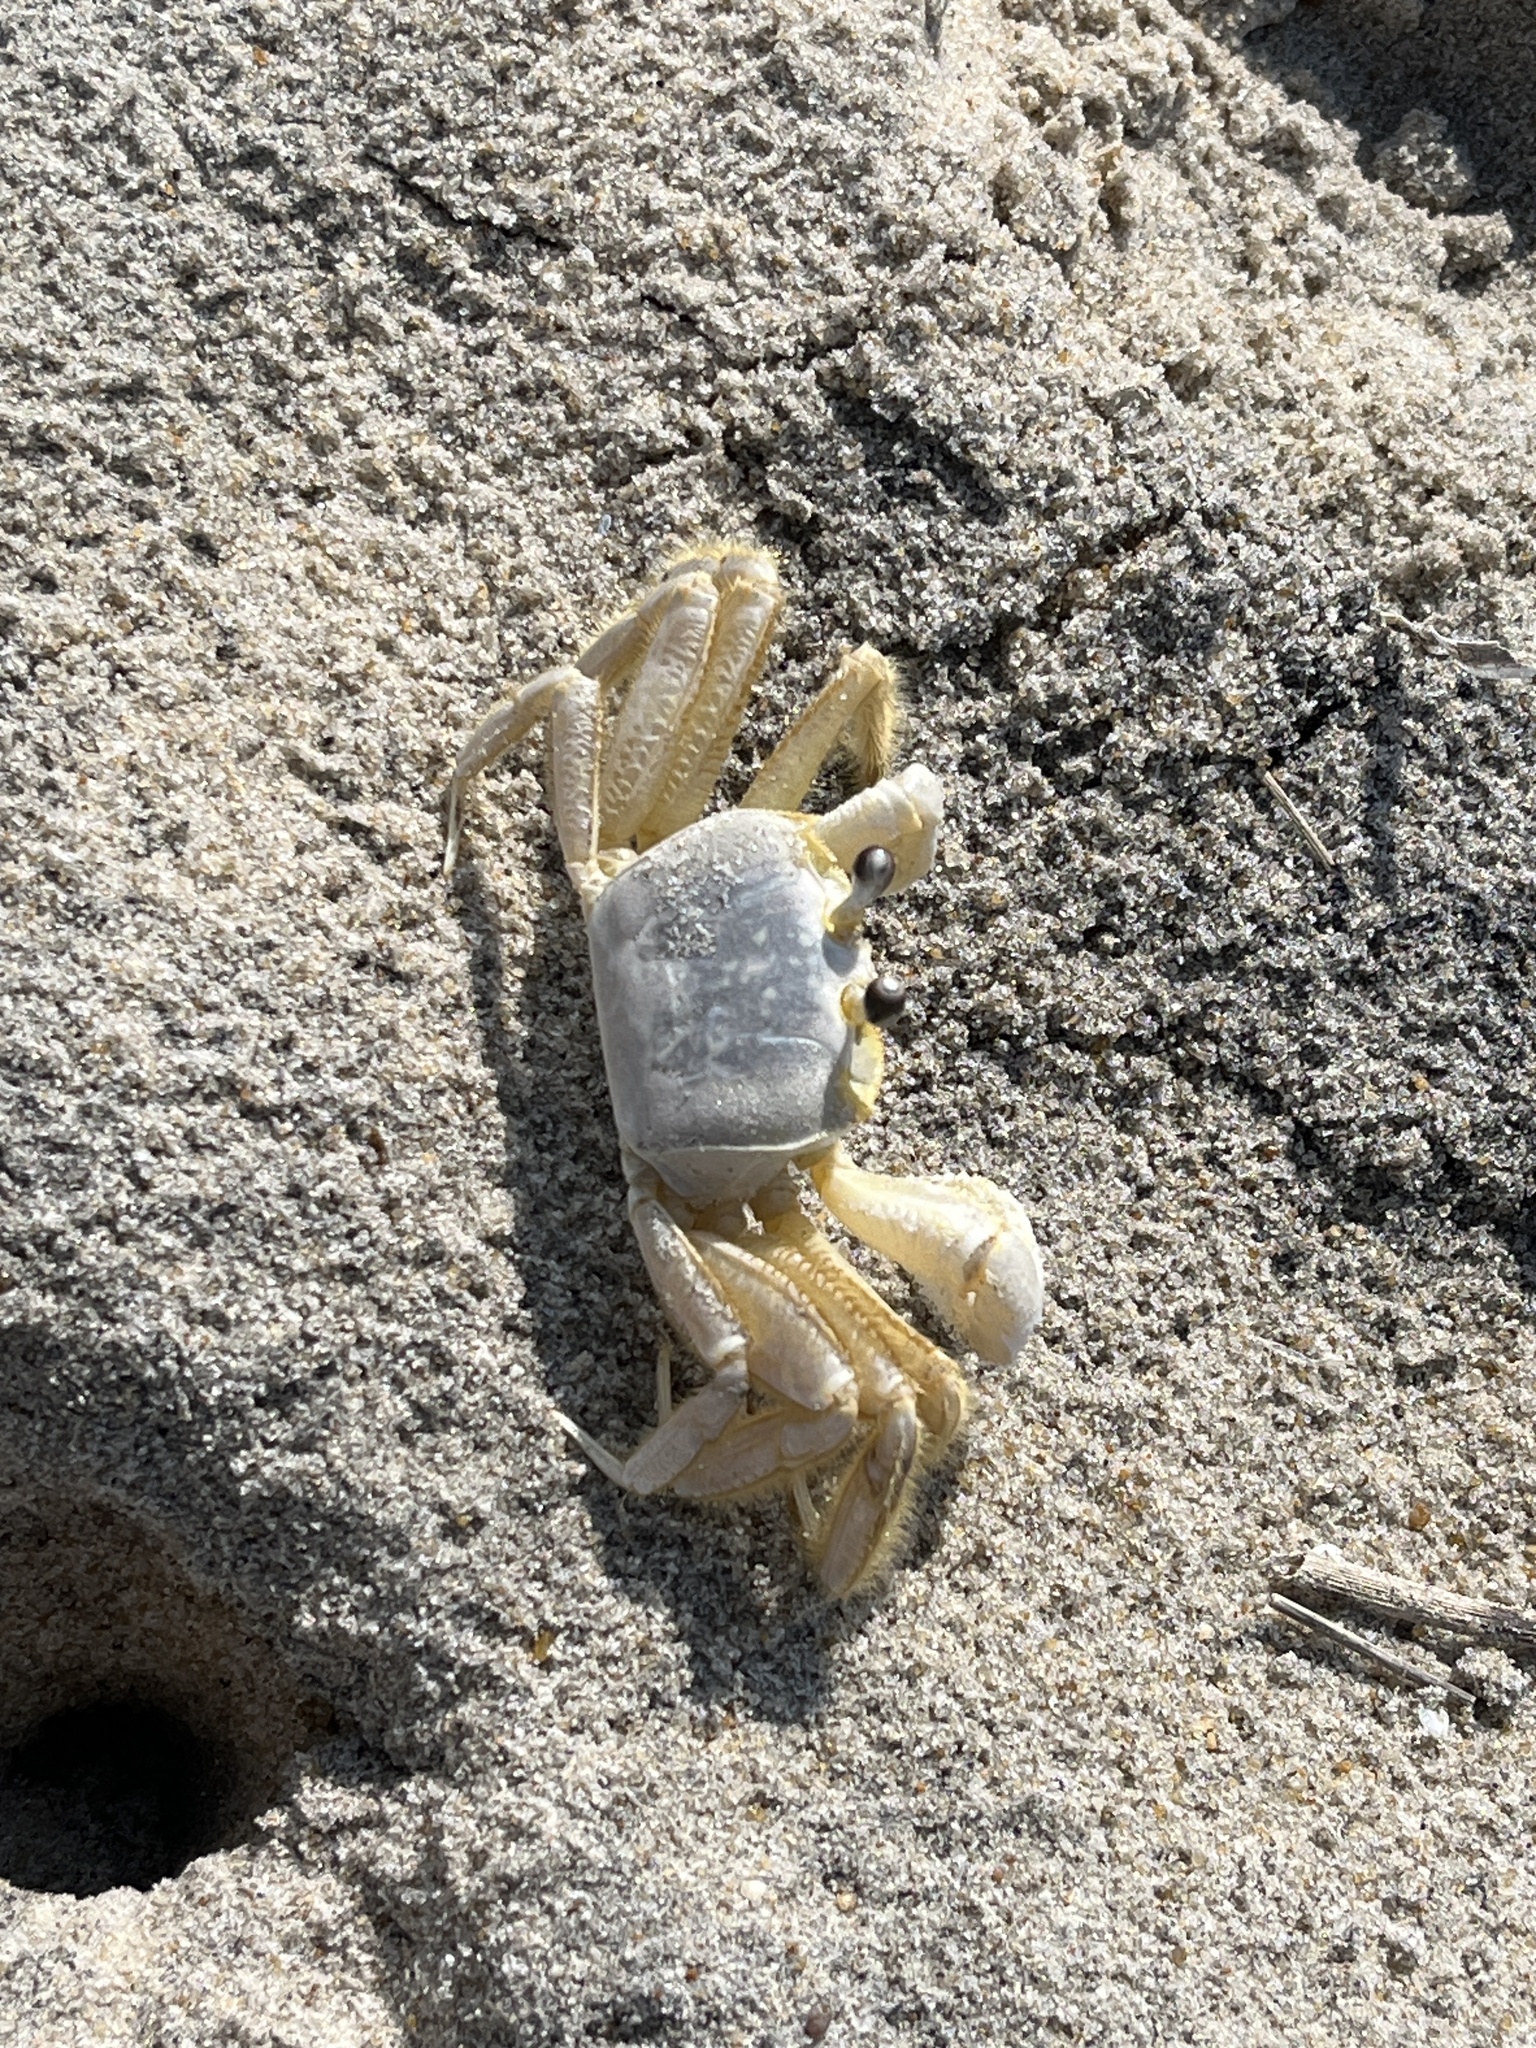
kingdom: Animalia
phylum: Arthropoda
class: Malacostraca
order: Decapoda
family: Ocypodidae
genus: Ocypode
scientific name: Ocypode quadrata
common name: Ghost crab
